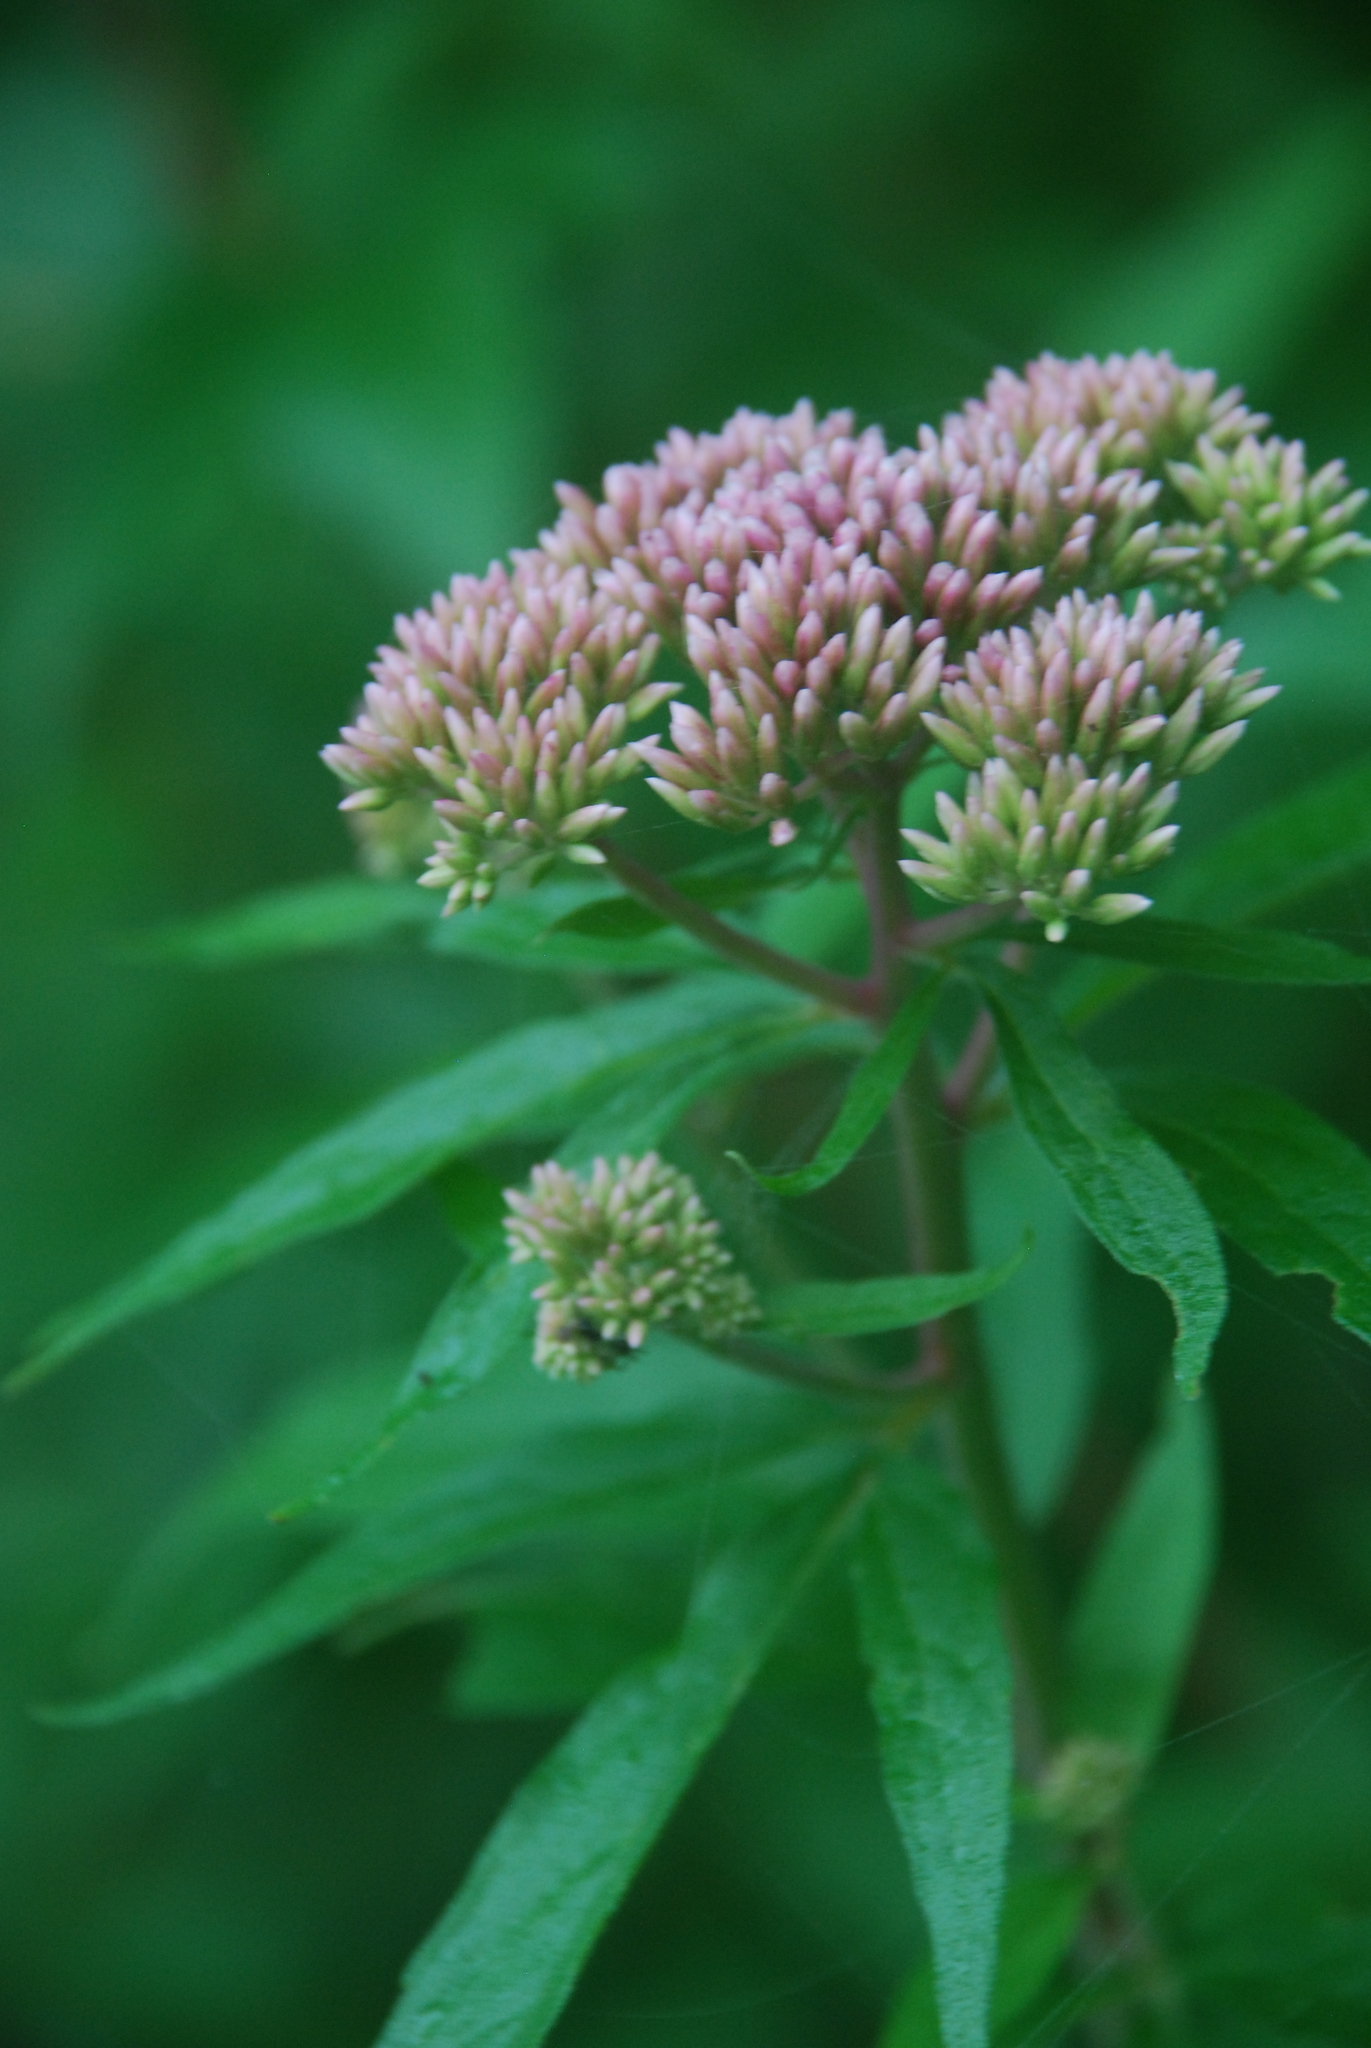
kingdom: Plantae
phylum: Tracheophyta
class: Magnoliopsida
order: Asterales
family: Asteraceae
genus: Eupatorium
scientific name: Eupatorium cannabinum
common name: Hemp-agrimony
